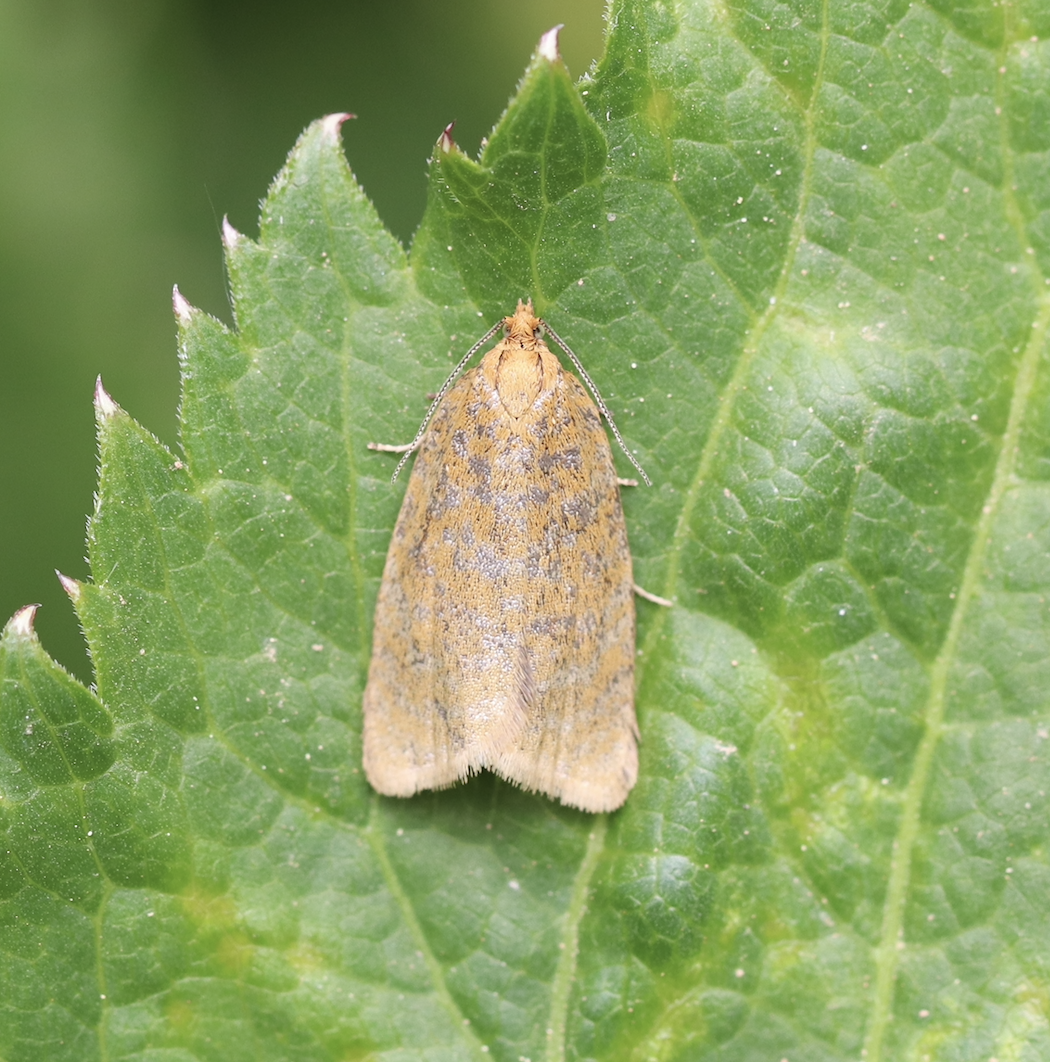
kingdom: Animalia
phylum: Arthropoda
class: Insecta
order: Lepidoptera
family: Tortricidae
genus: Clepsis
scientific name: Clepsis rogana
